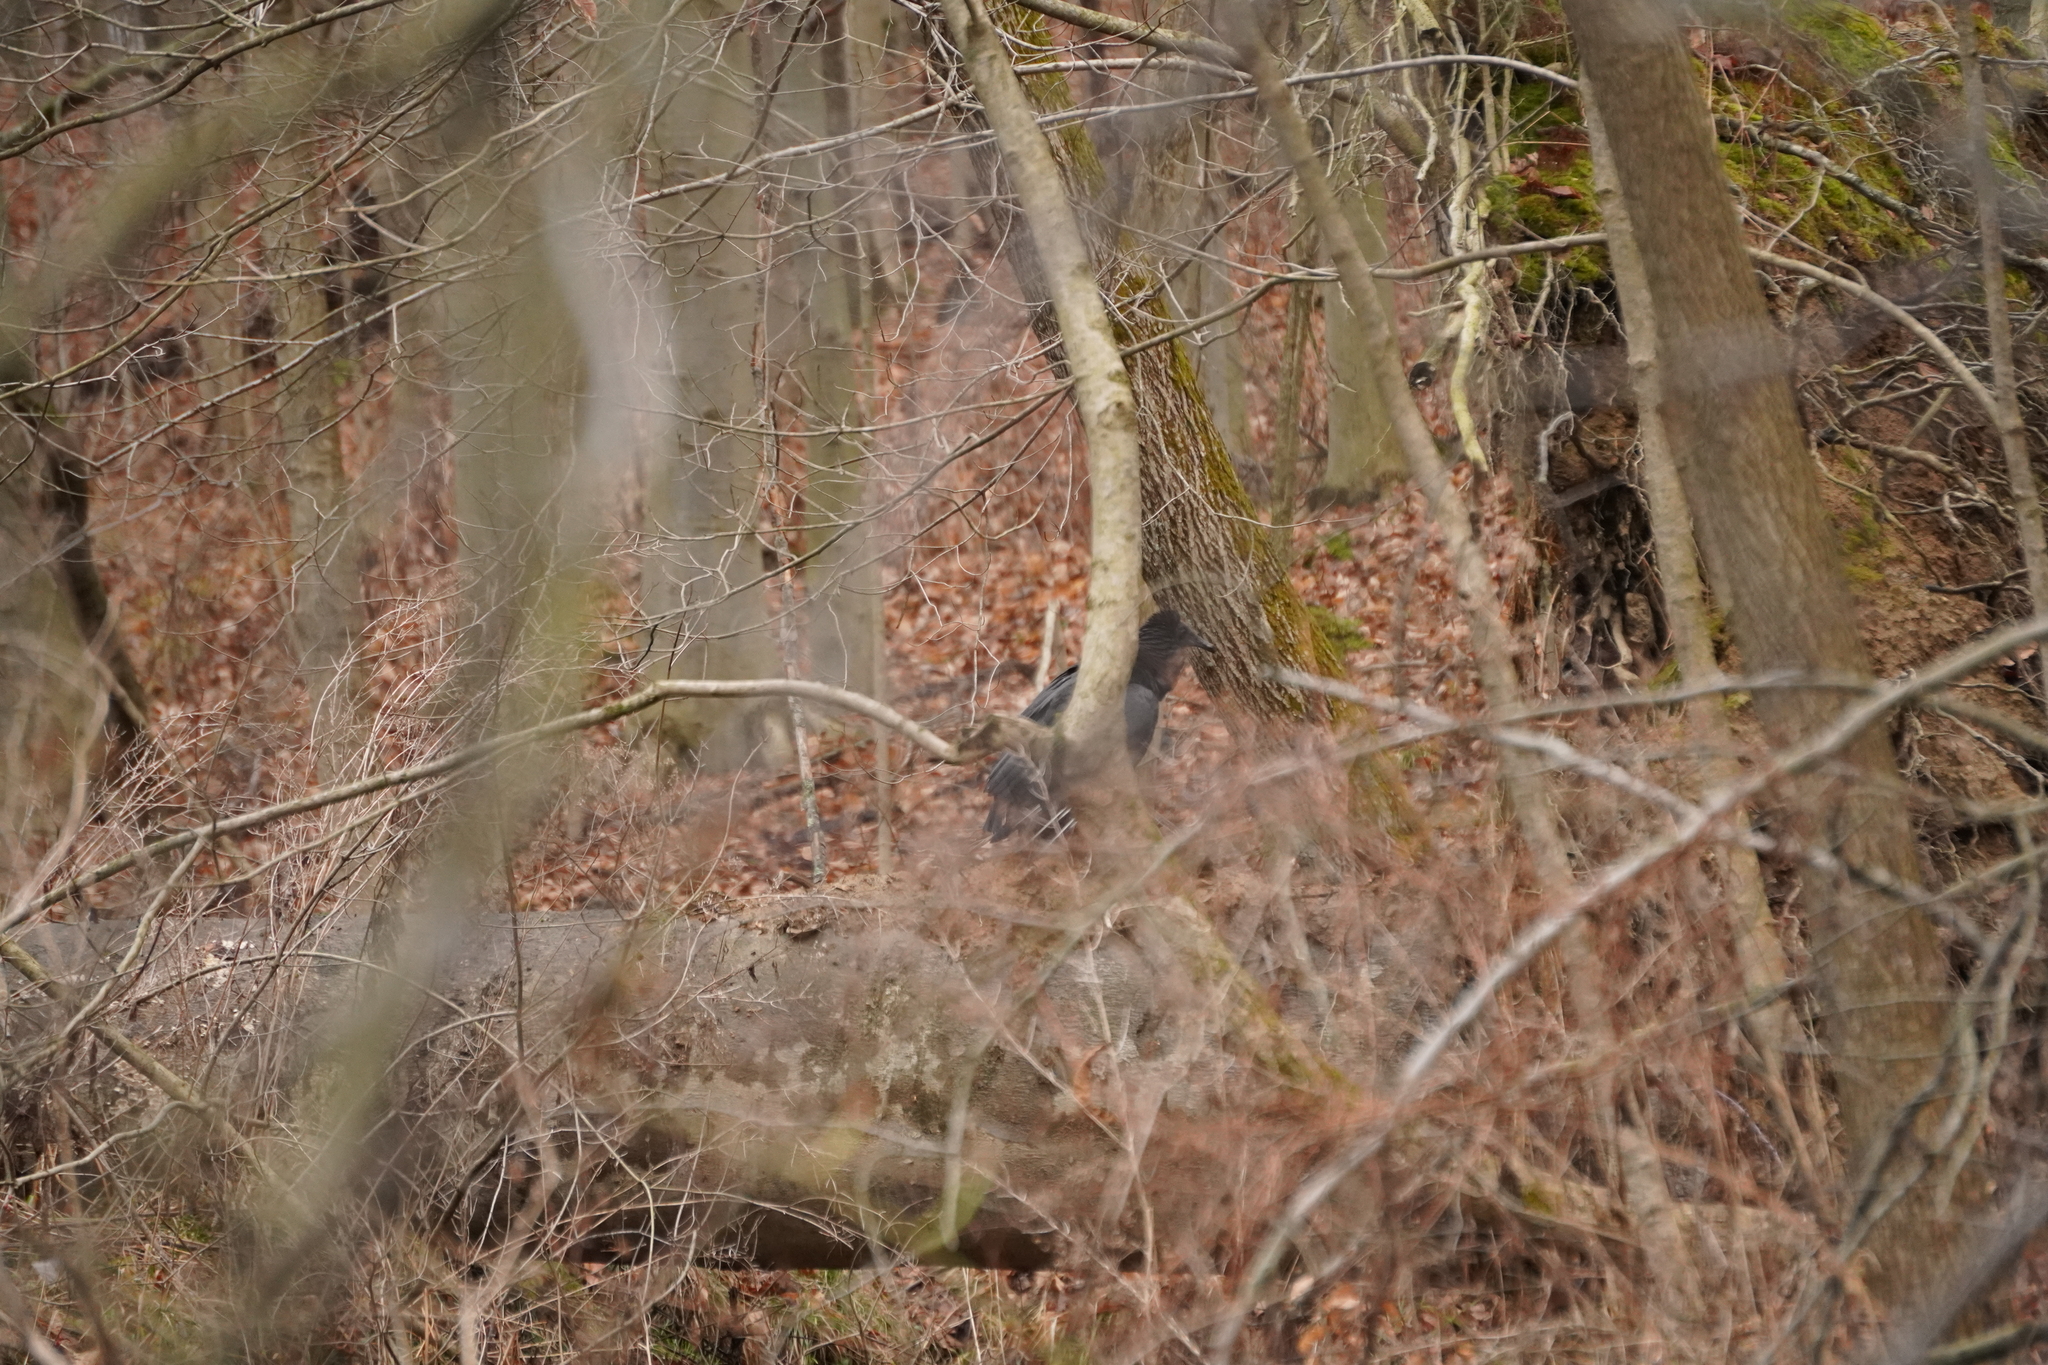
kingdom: Animalia
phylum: Chordata
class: Aves
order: Accipitriformes
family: Cathartidae
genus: Coragyps
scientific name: Coragyps atratus
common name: Black vulture
